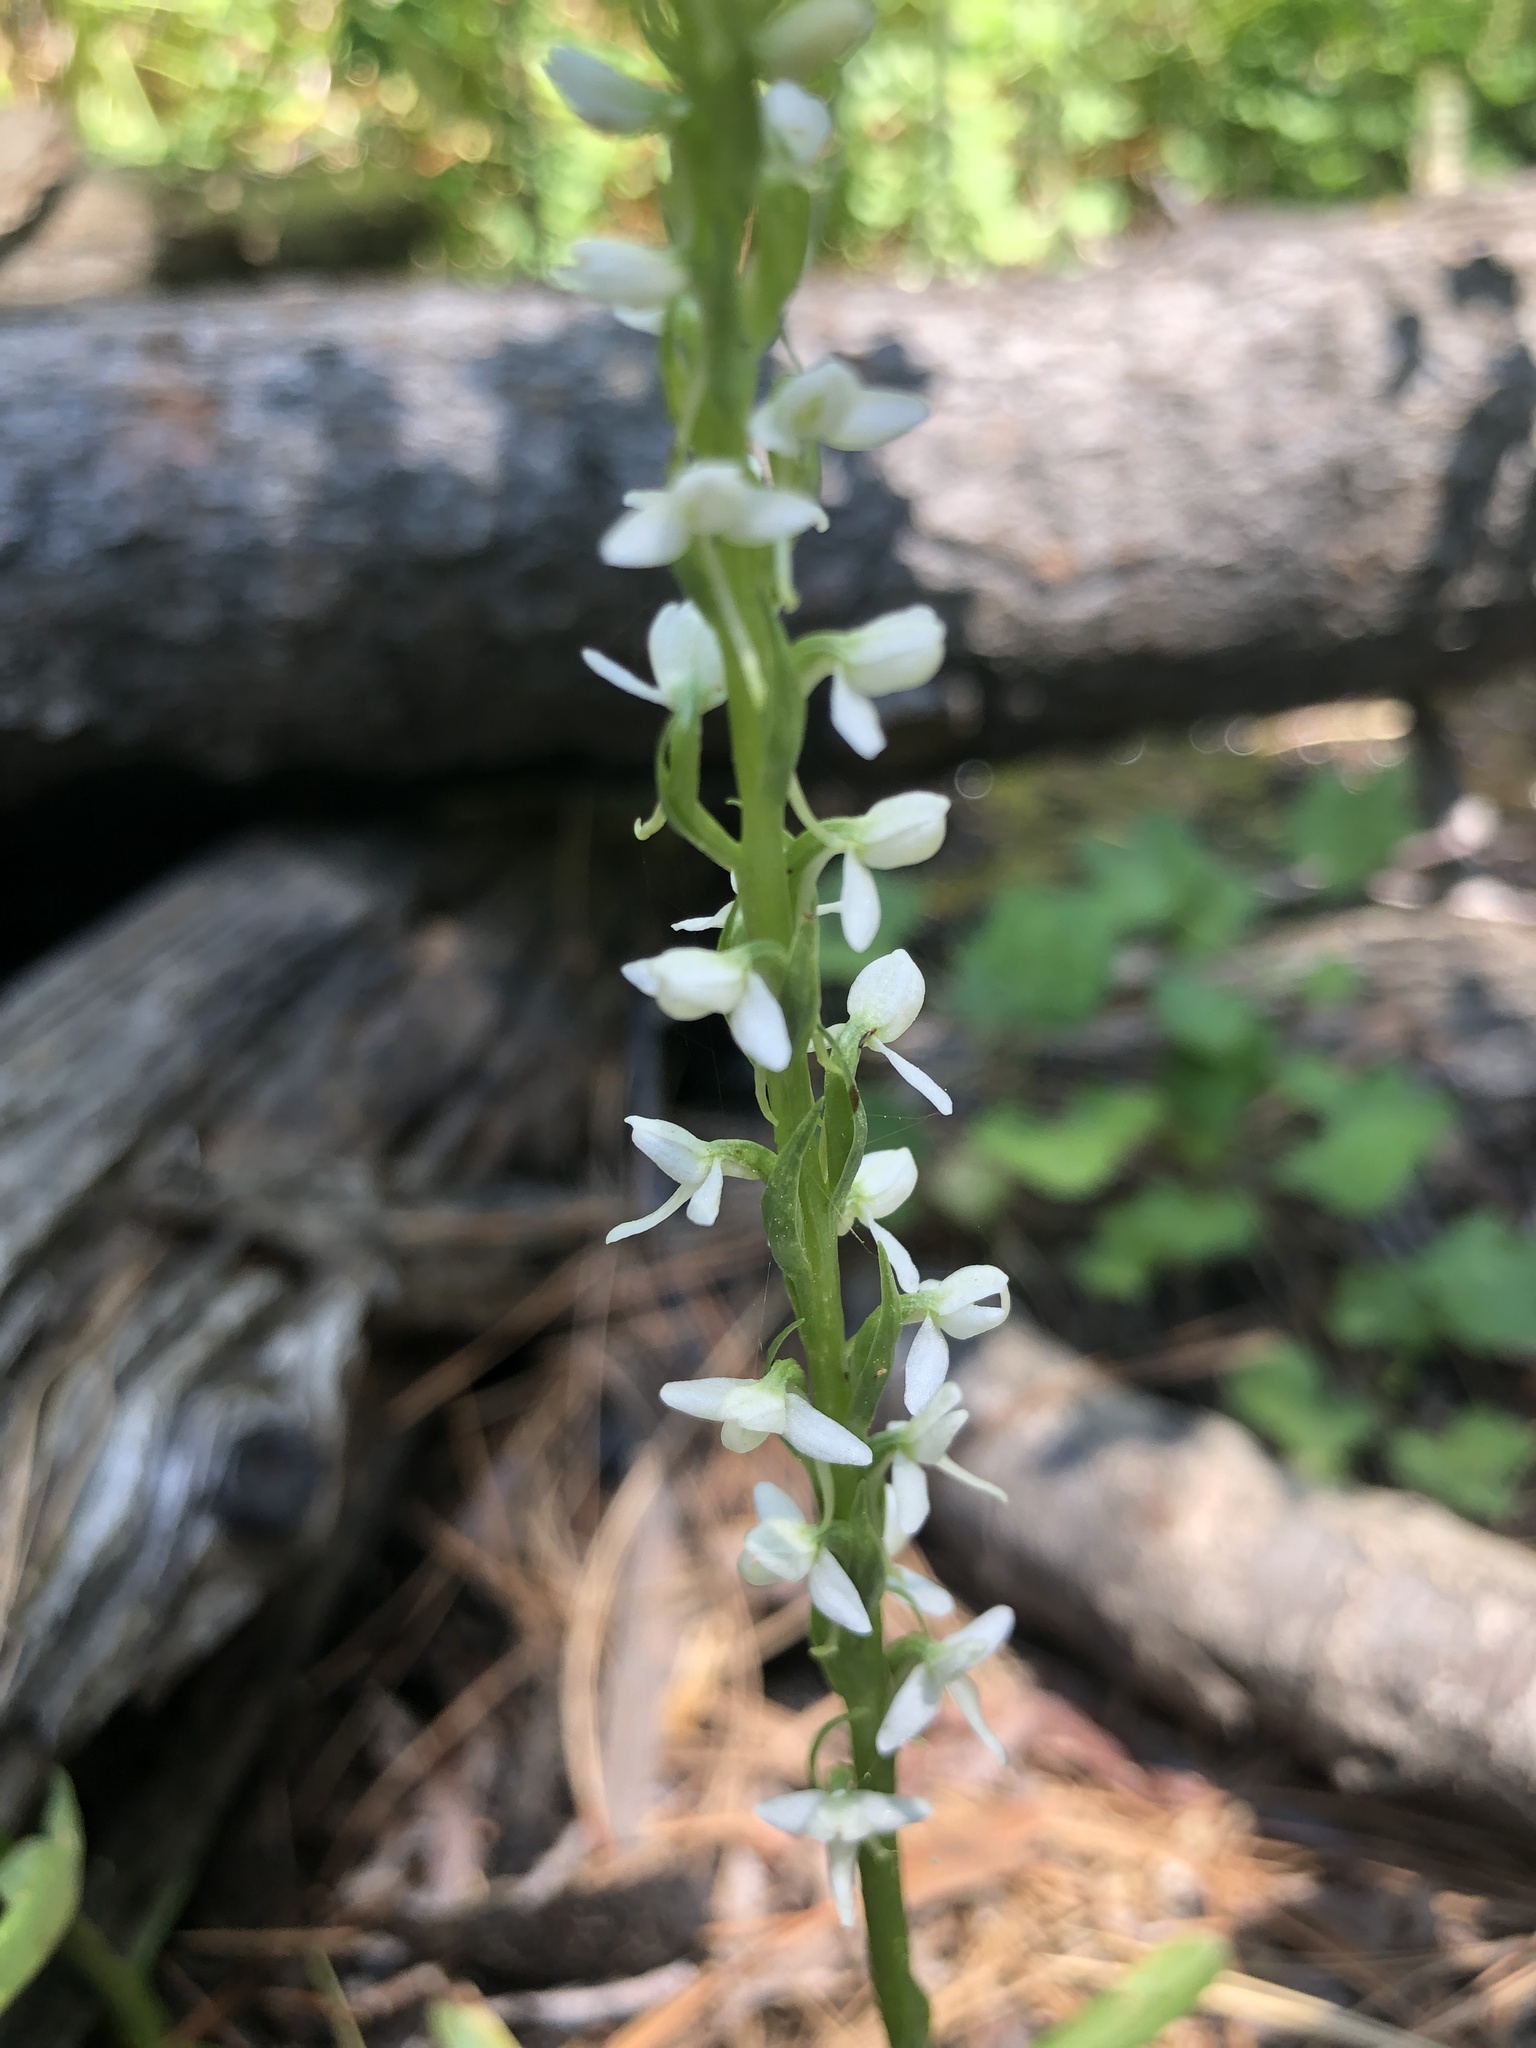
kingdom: Plantae
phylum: Tracheophyta
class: Liliopsida
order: Asparagales
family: Orchidaceae
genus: Platanthera
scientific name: Platanthera dilatata
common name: Bog candles
